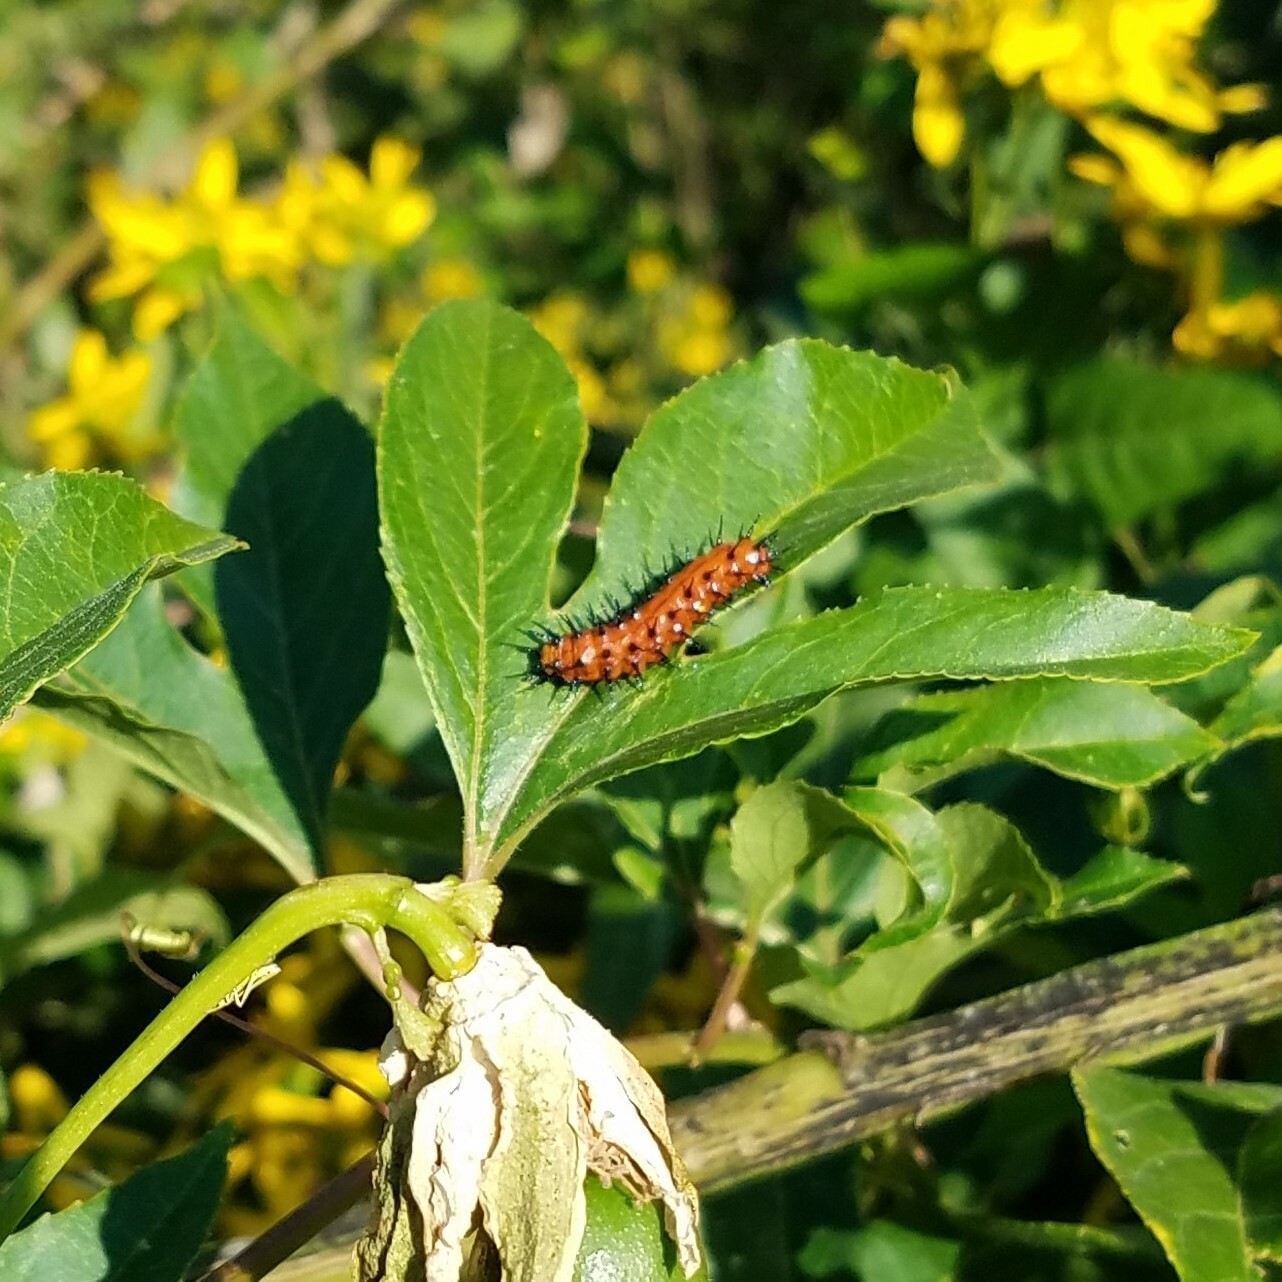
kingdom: Animalia
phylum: Arthropoda
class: Insecta
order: Lepidoptera
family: Nymphalidae
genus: Dione
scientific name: Dione vanillae
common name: Gulf fritillary
